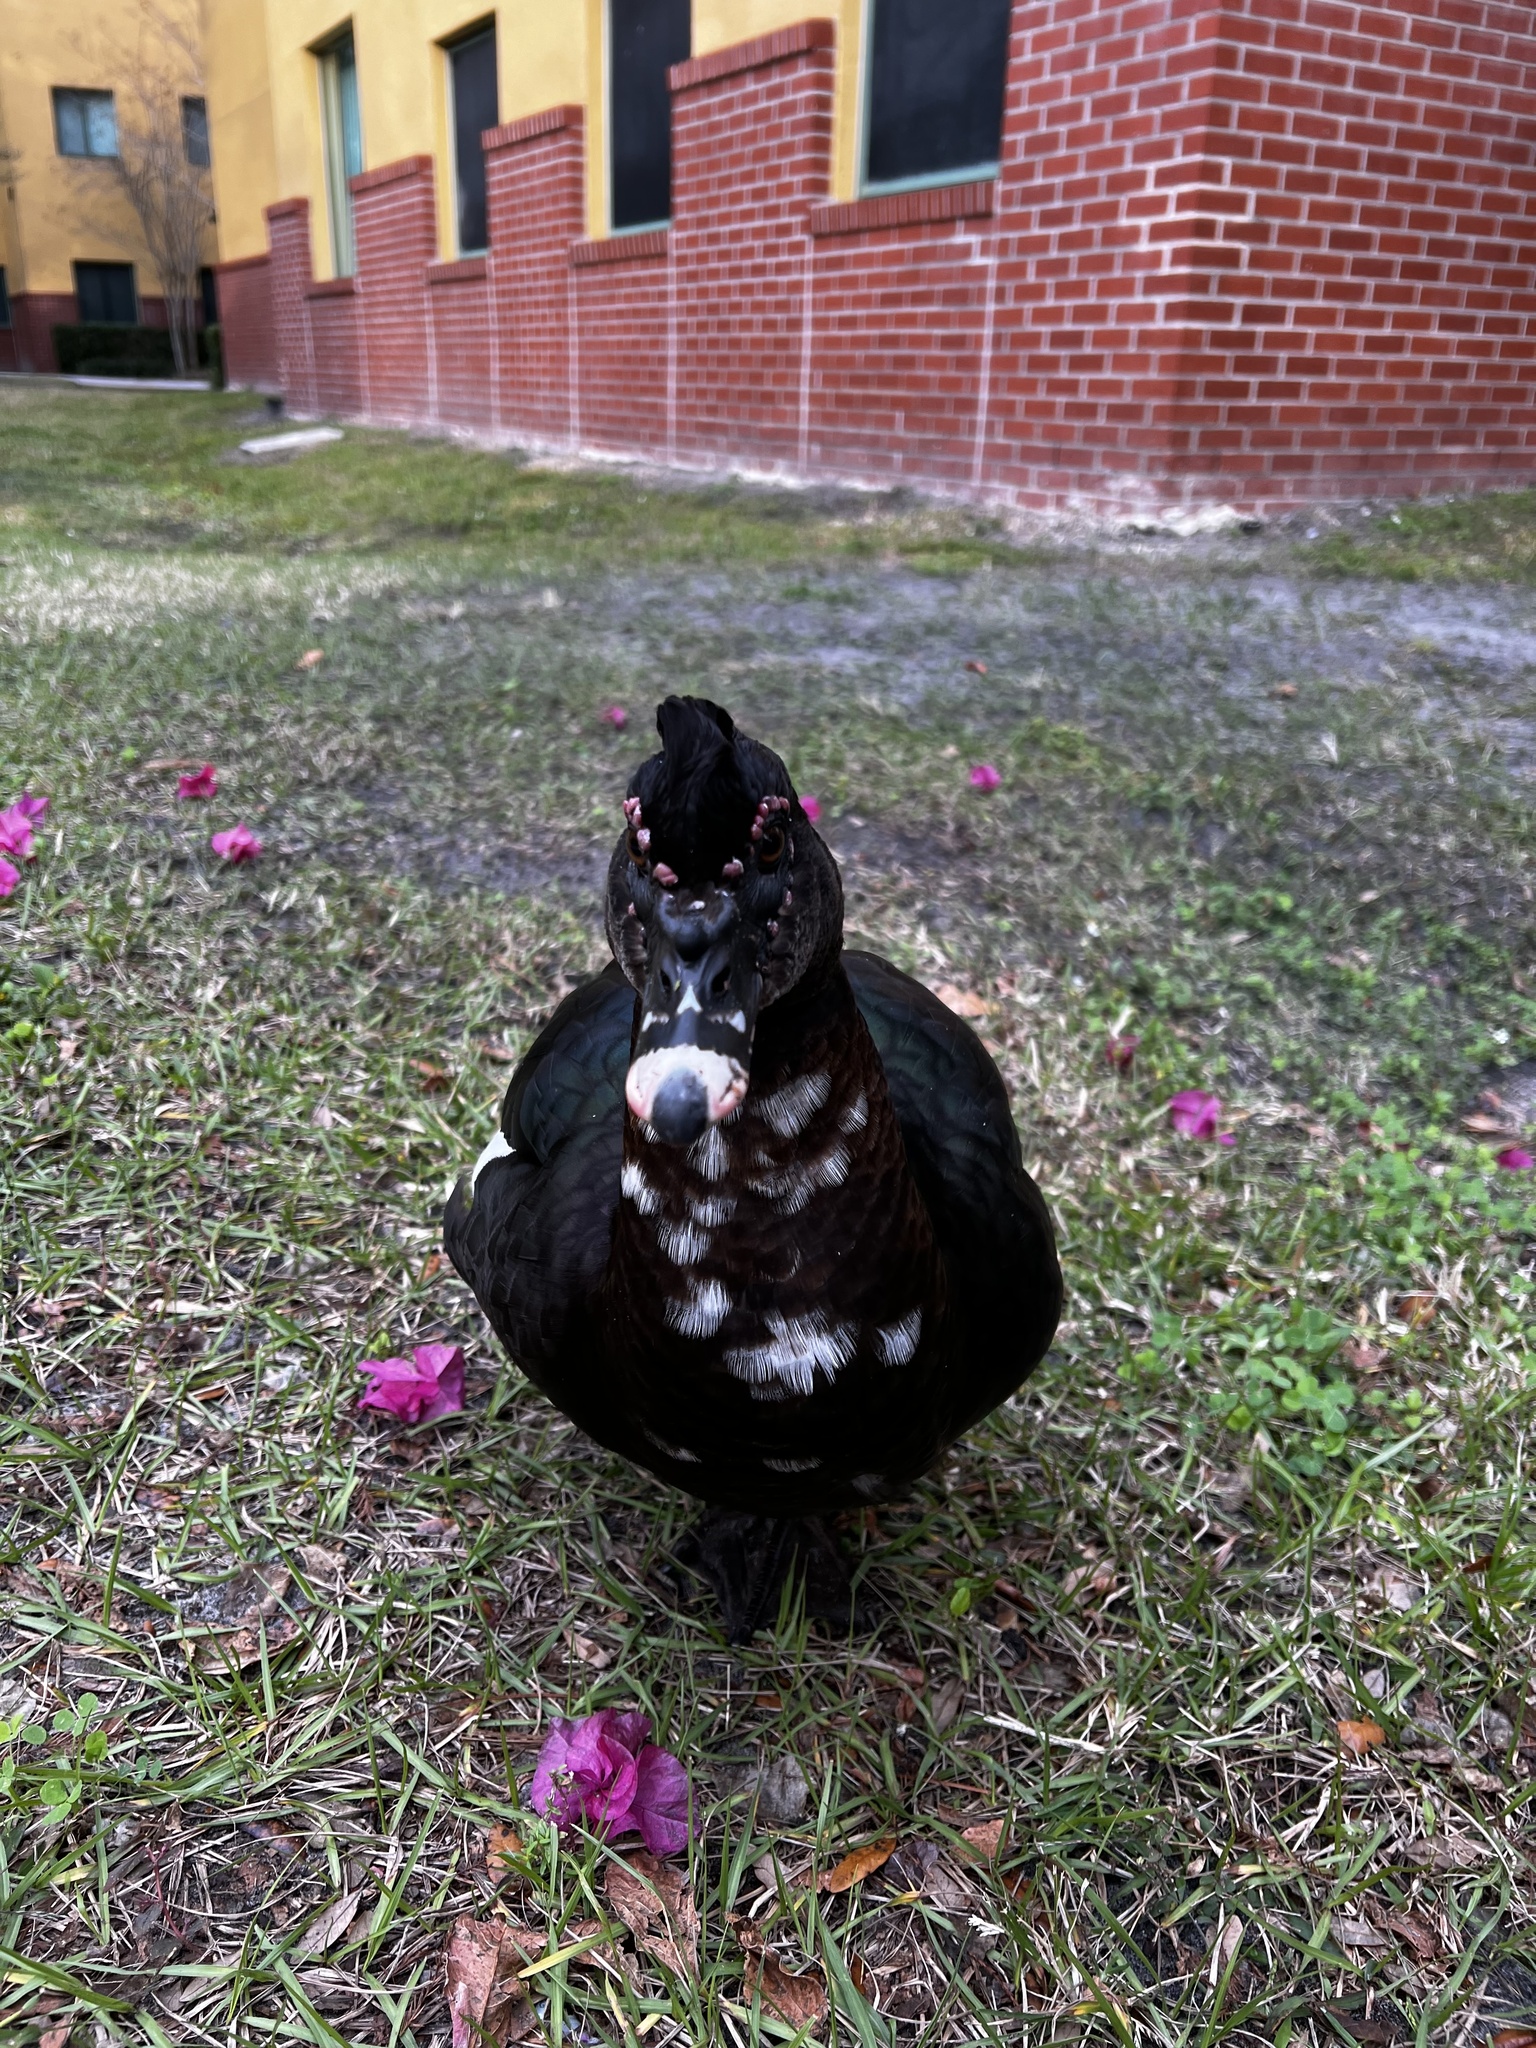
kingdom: Animalia
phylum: Chordata
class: Aves
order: Anseriformes
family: Anatidae
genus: Cairina
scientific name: Cairina moschata
